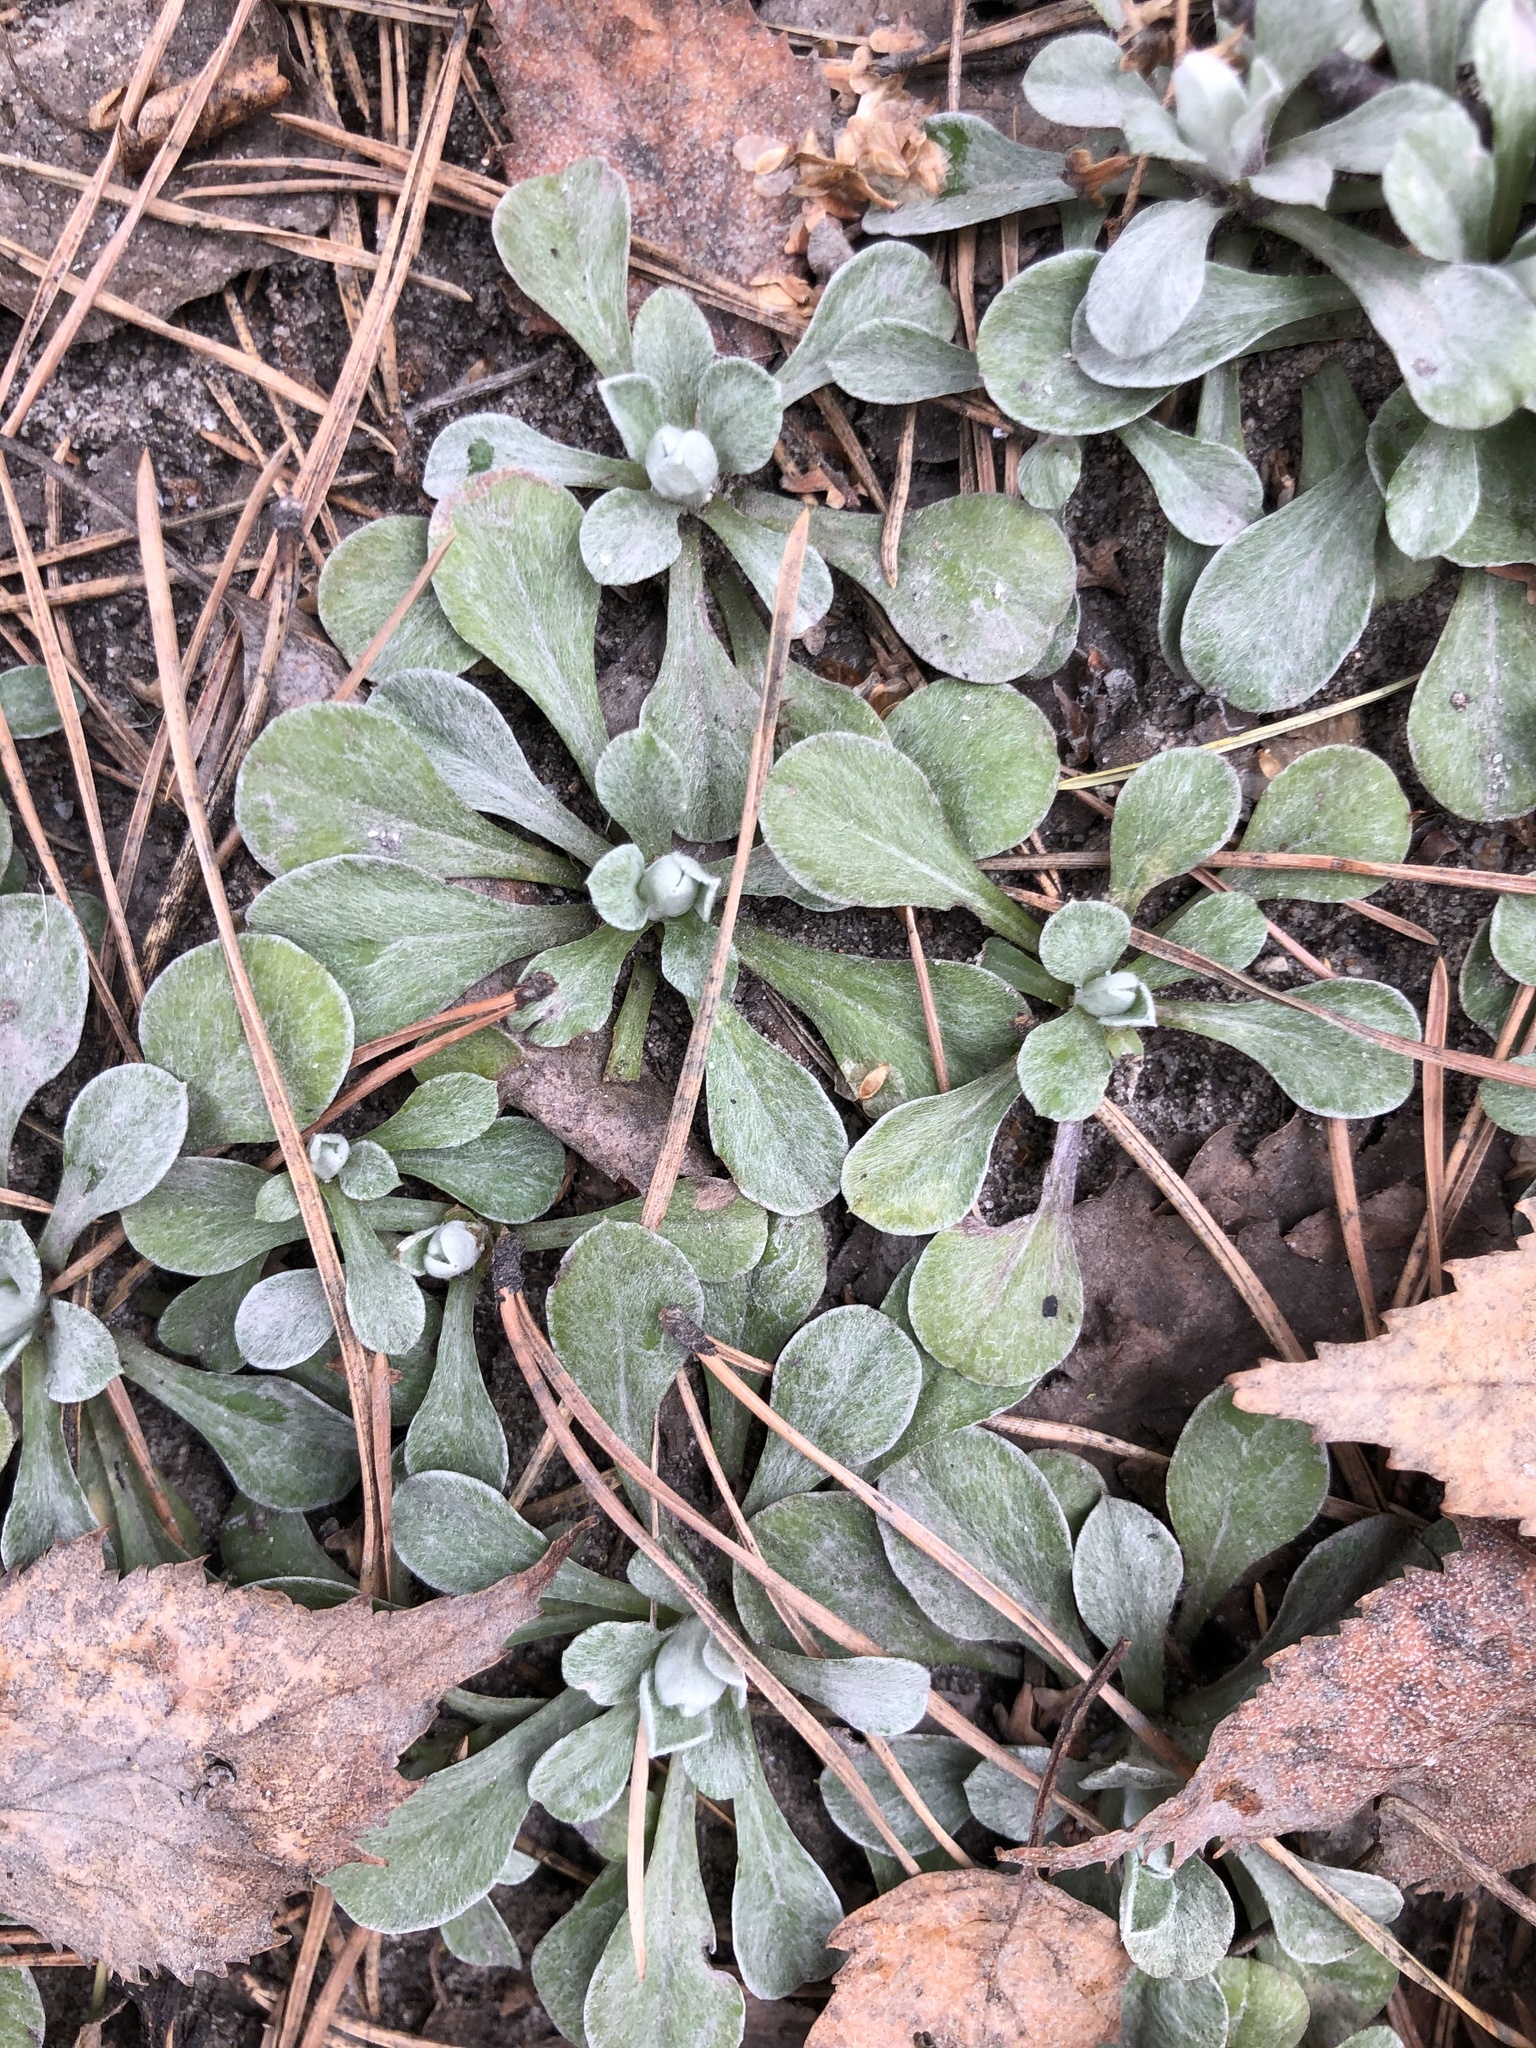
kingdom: Plantae
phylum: Tracheophyta
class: Magnoliopsida
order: Asterales
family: Asteraceae
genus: Antennaria
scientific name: Antennaria dioica
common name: Mountain everlasting
